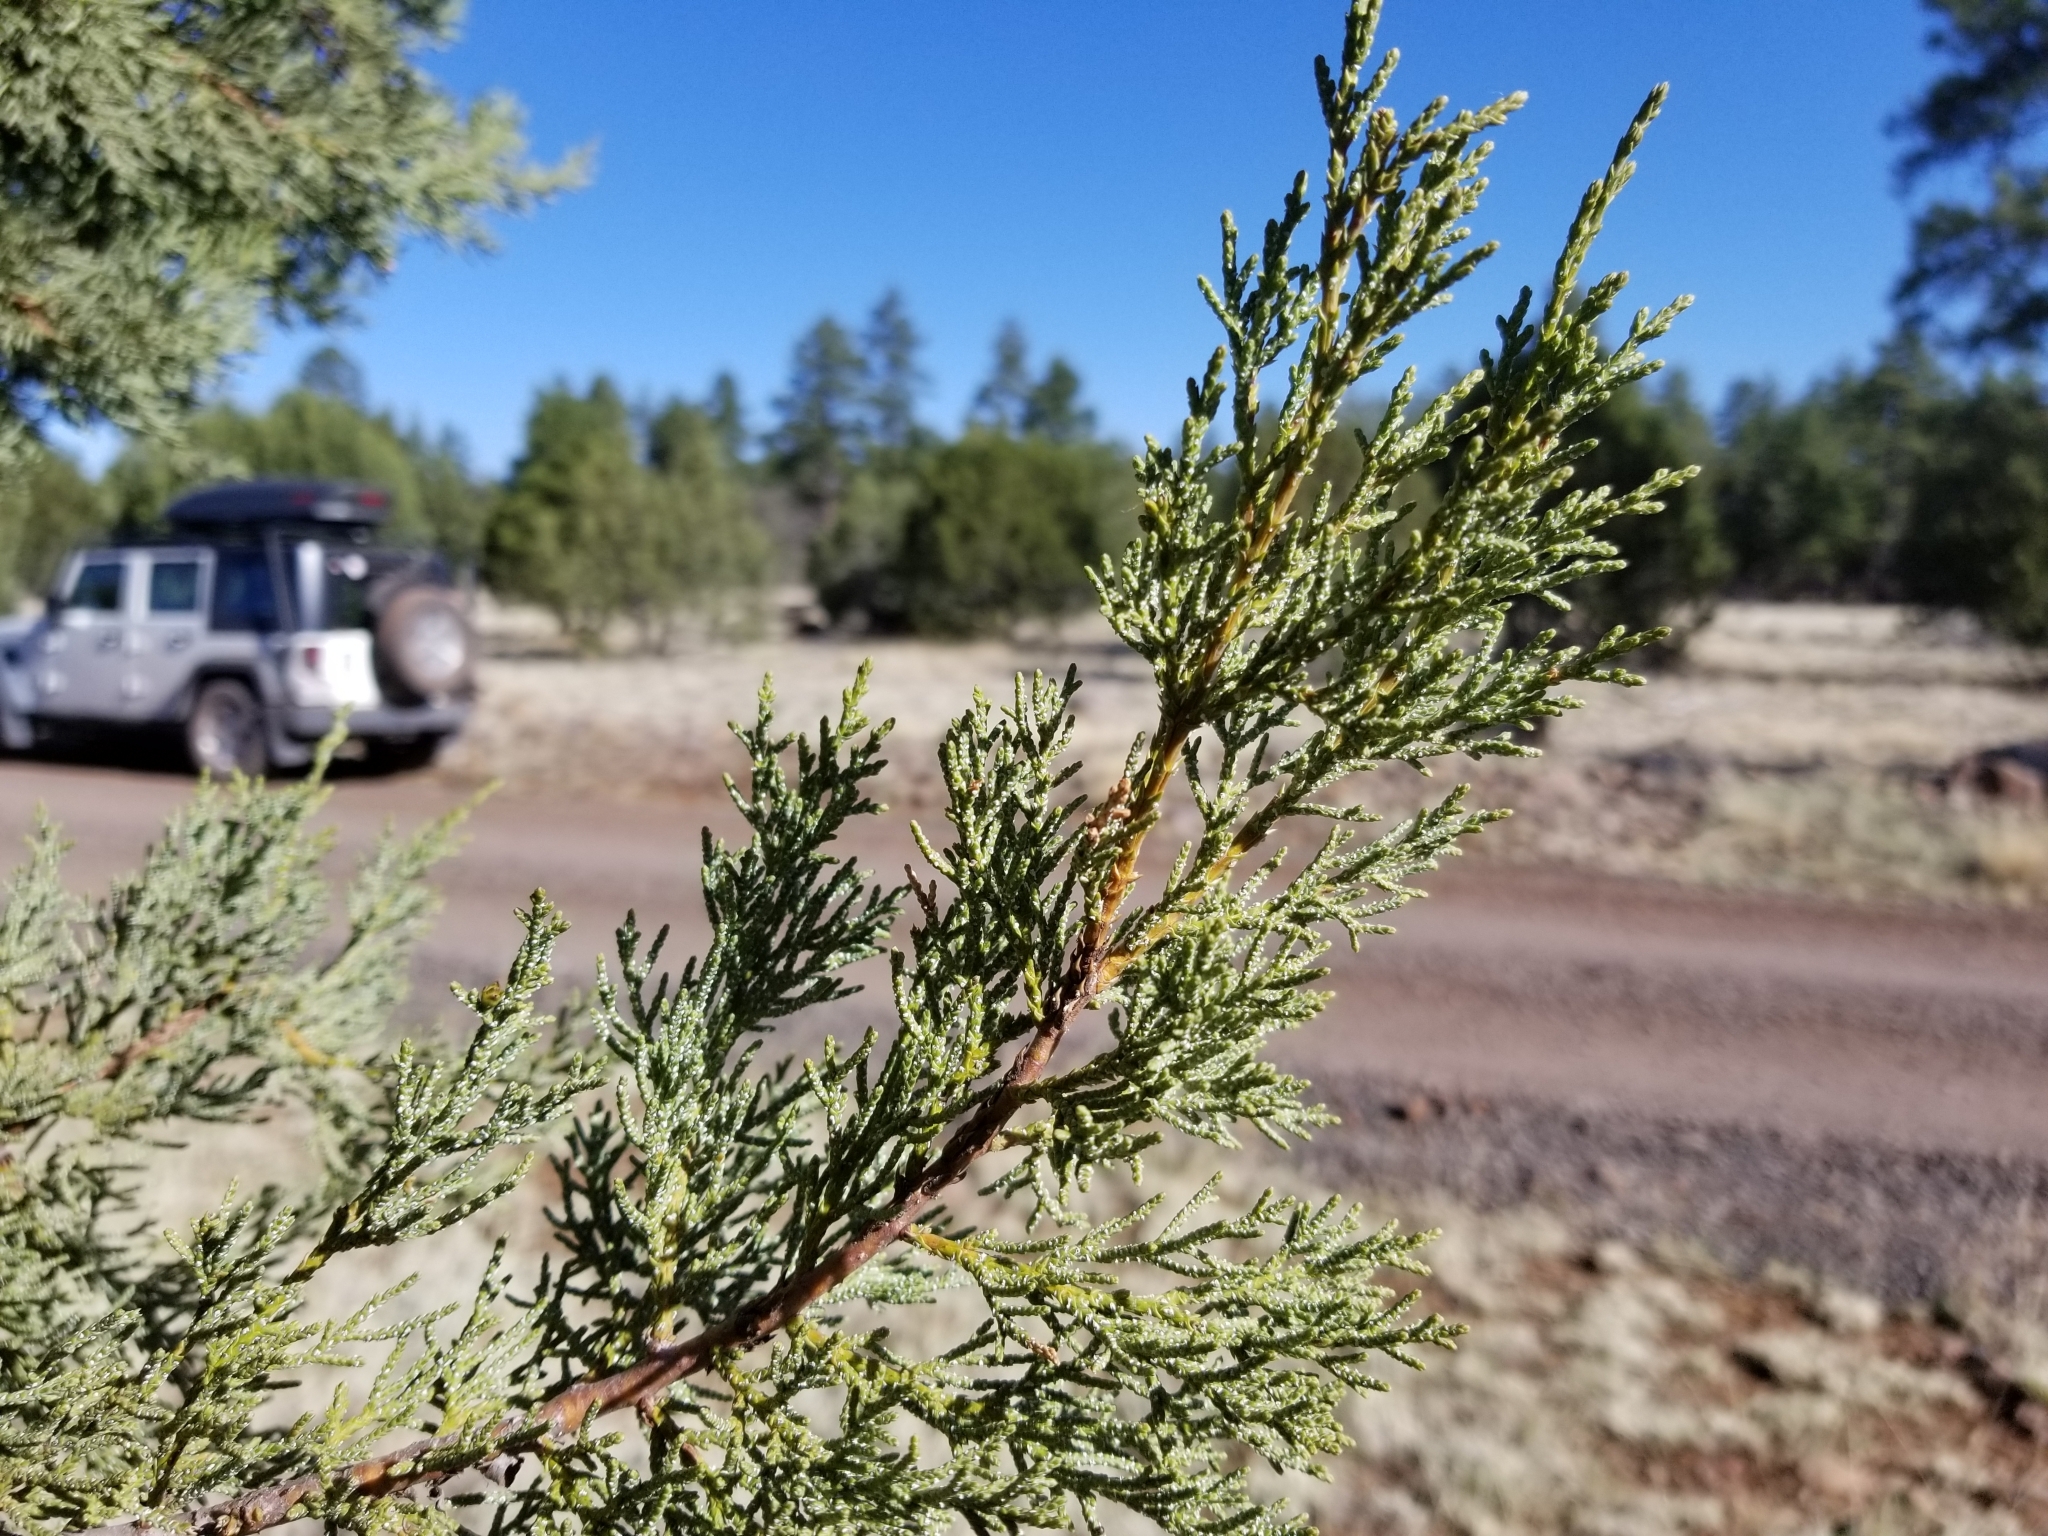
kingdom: Plantae
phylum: Tracheophyta
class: Pinopsida
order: Pinales
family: Cupressaceae
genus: Juniperus
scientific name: Juniperus monosperma
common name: One-seed juniper
